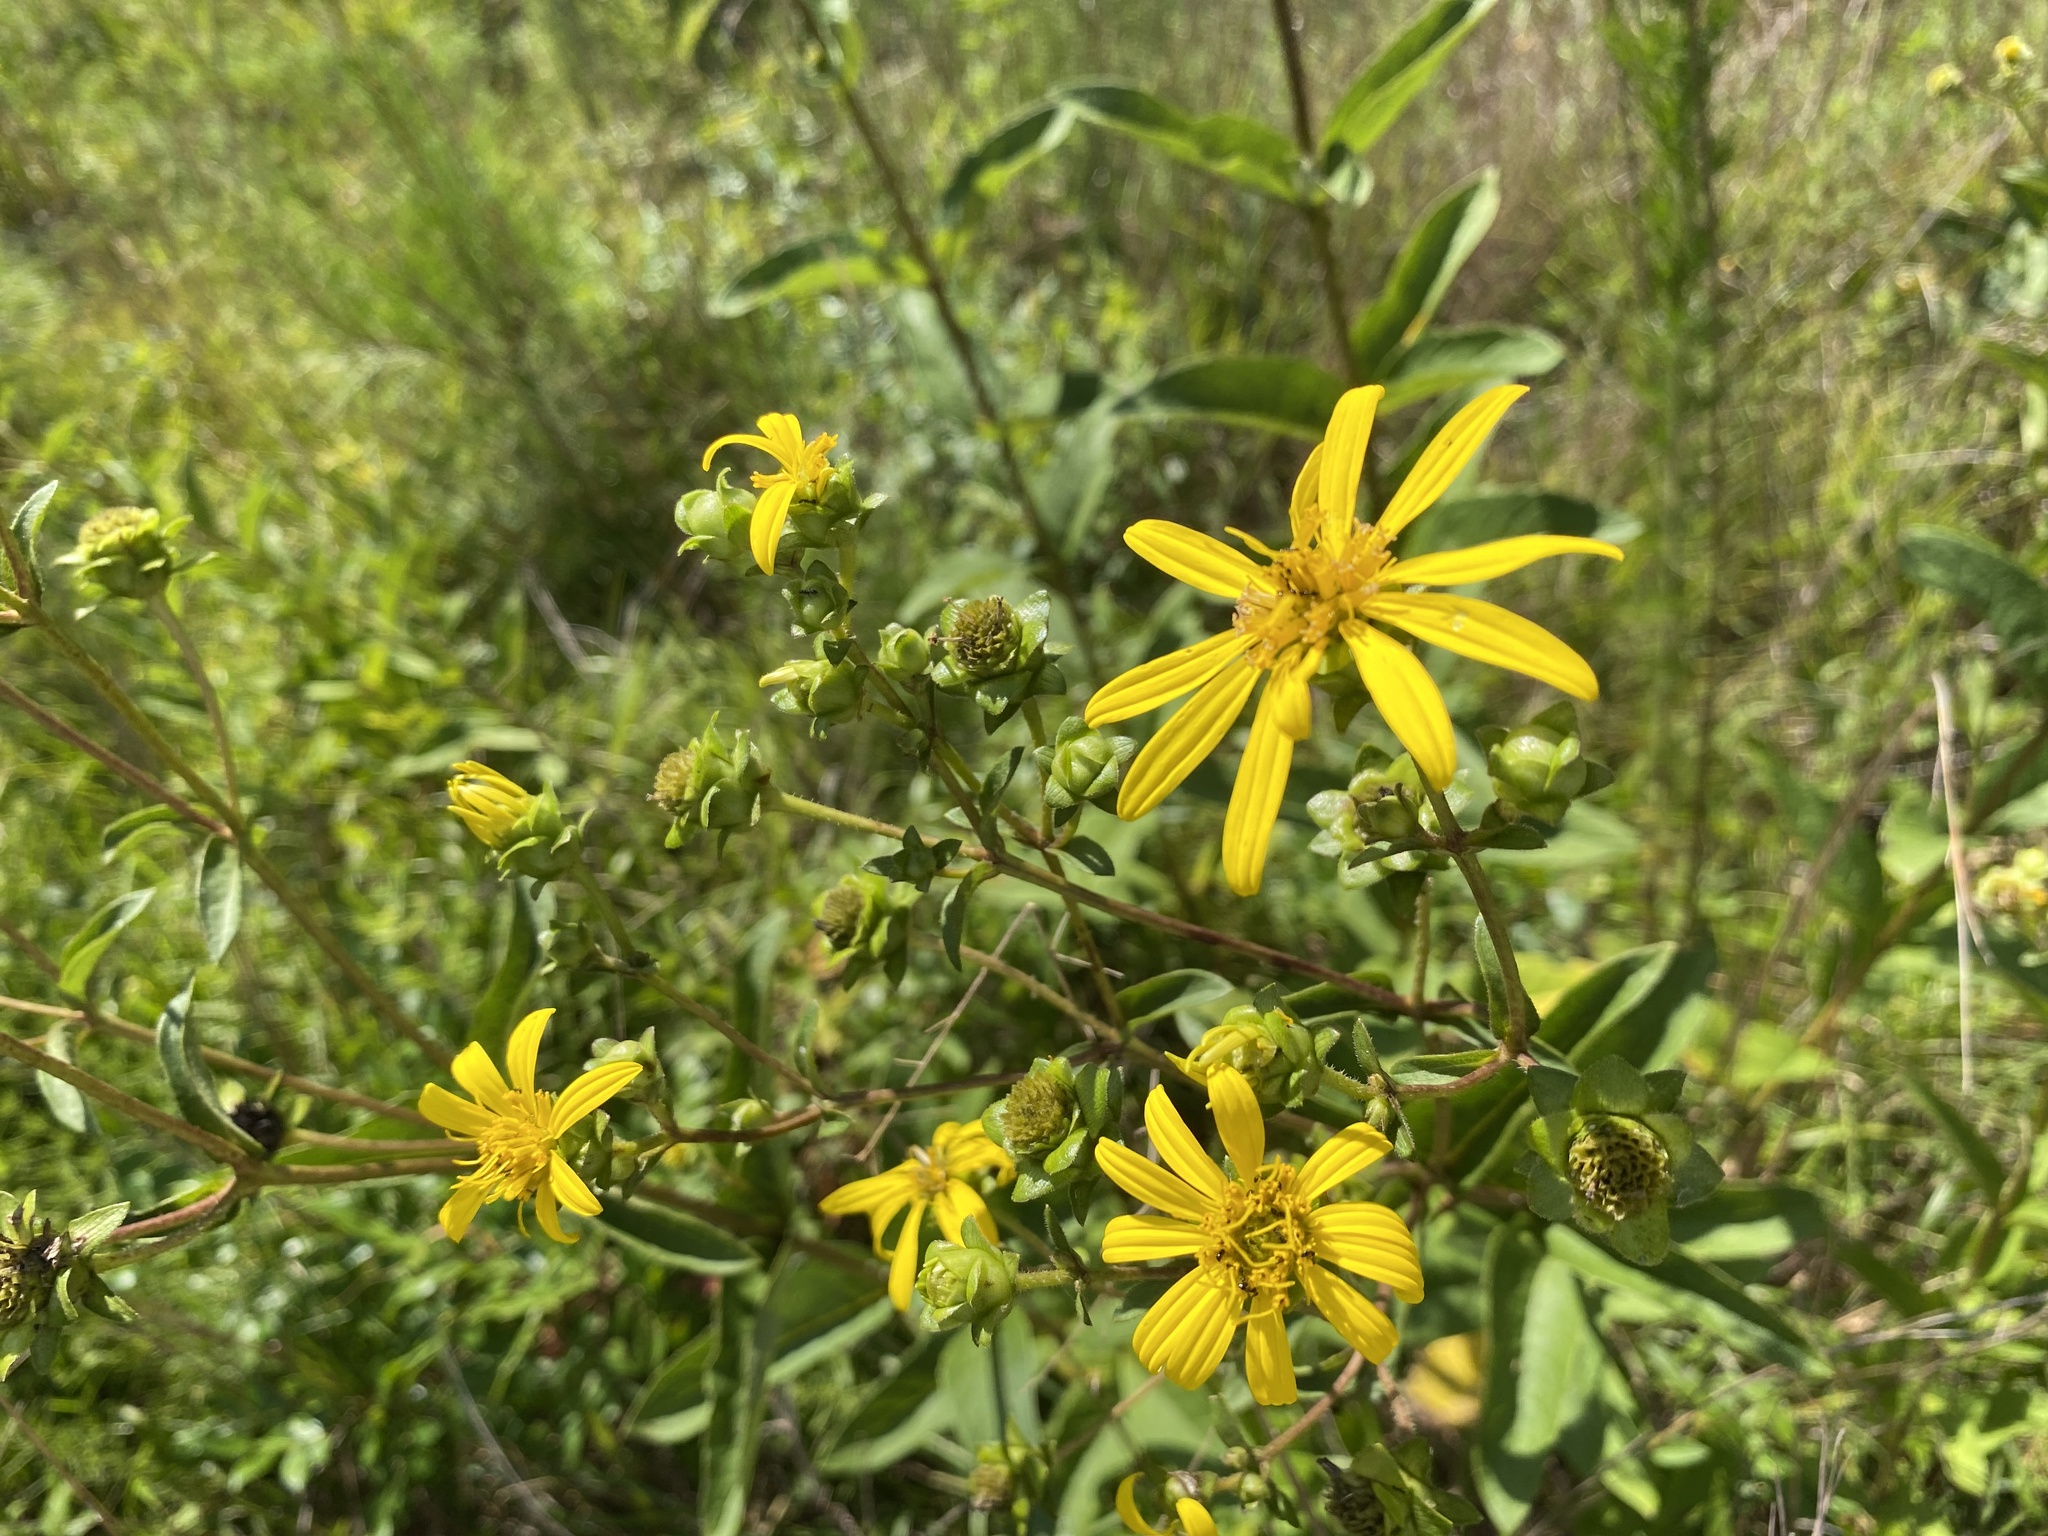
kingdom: Plantae
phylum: Tracheophyta
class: Magnoliopsida
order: Asterales
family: Asteraceae
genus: Silphium
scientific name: Silphium asteriscus
